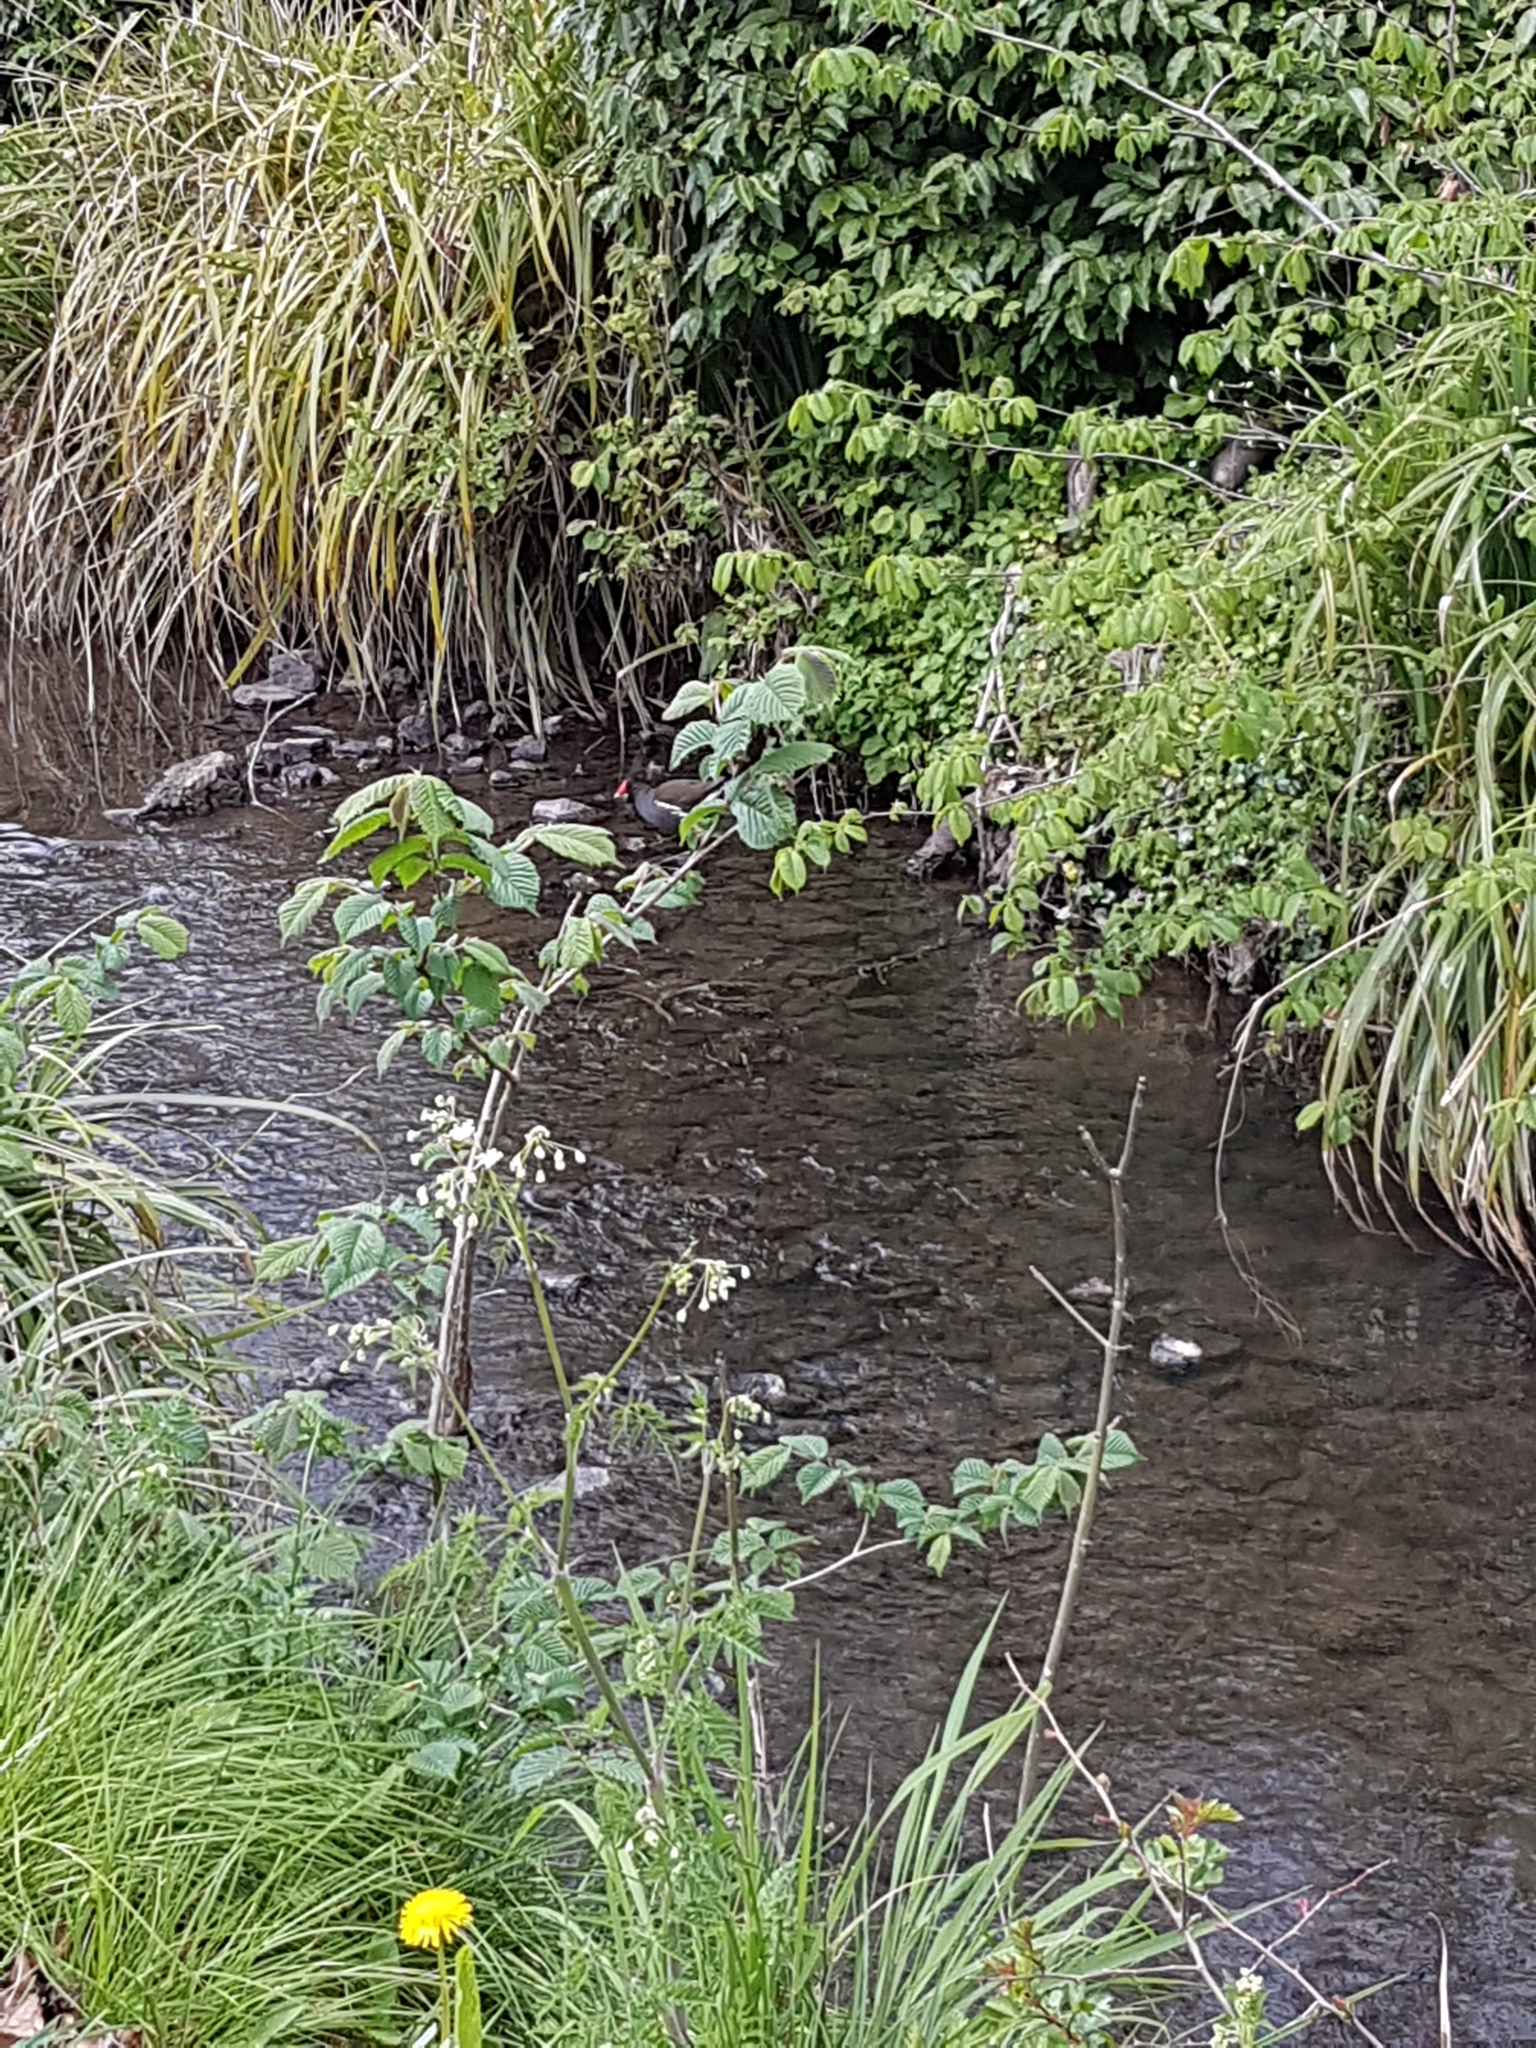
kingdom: Animalia
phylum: Chordata
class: Aves
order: Gruiformes
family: Rallidae
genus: Gallinula
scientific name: Gallinula chloropus
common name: Common moorhen
